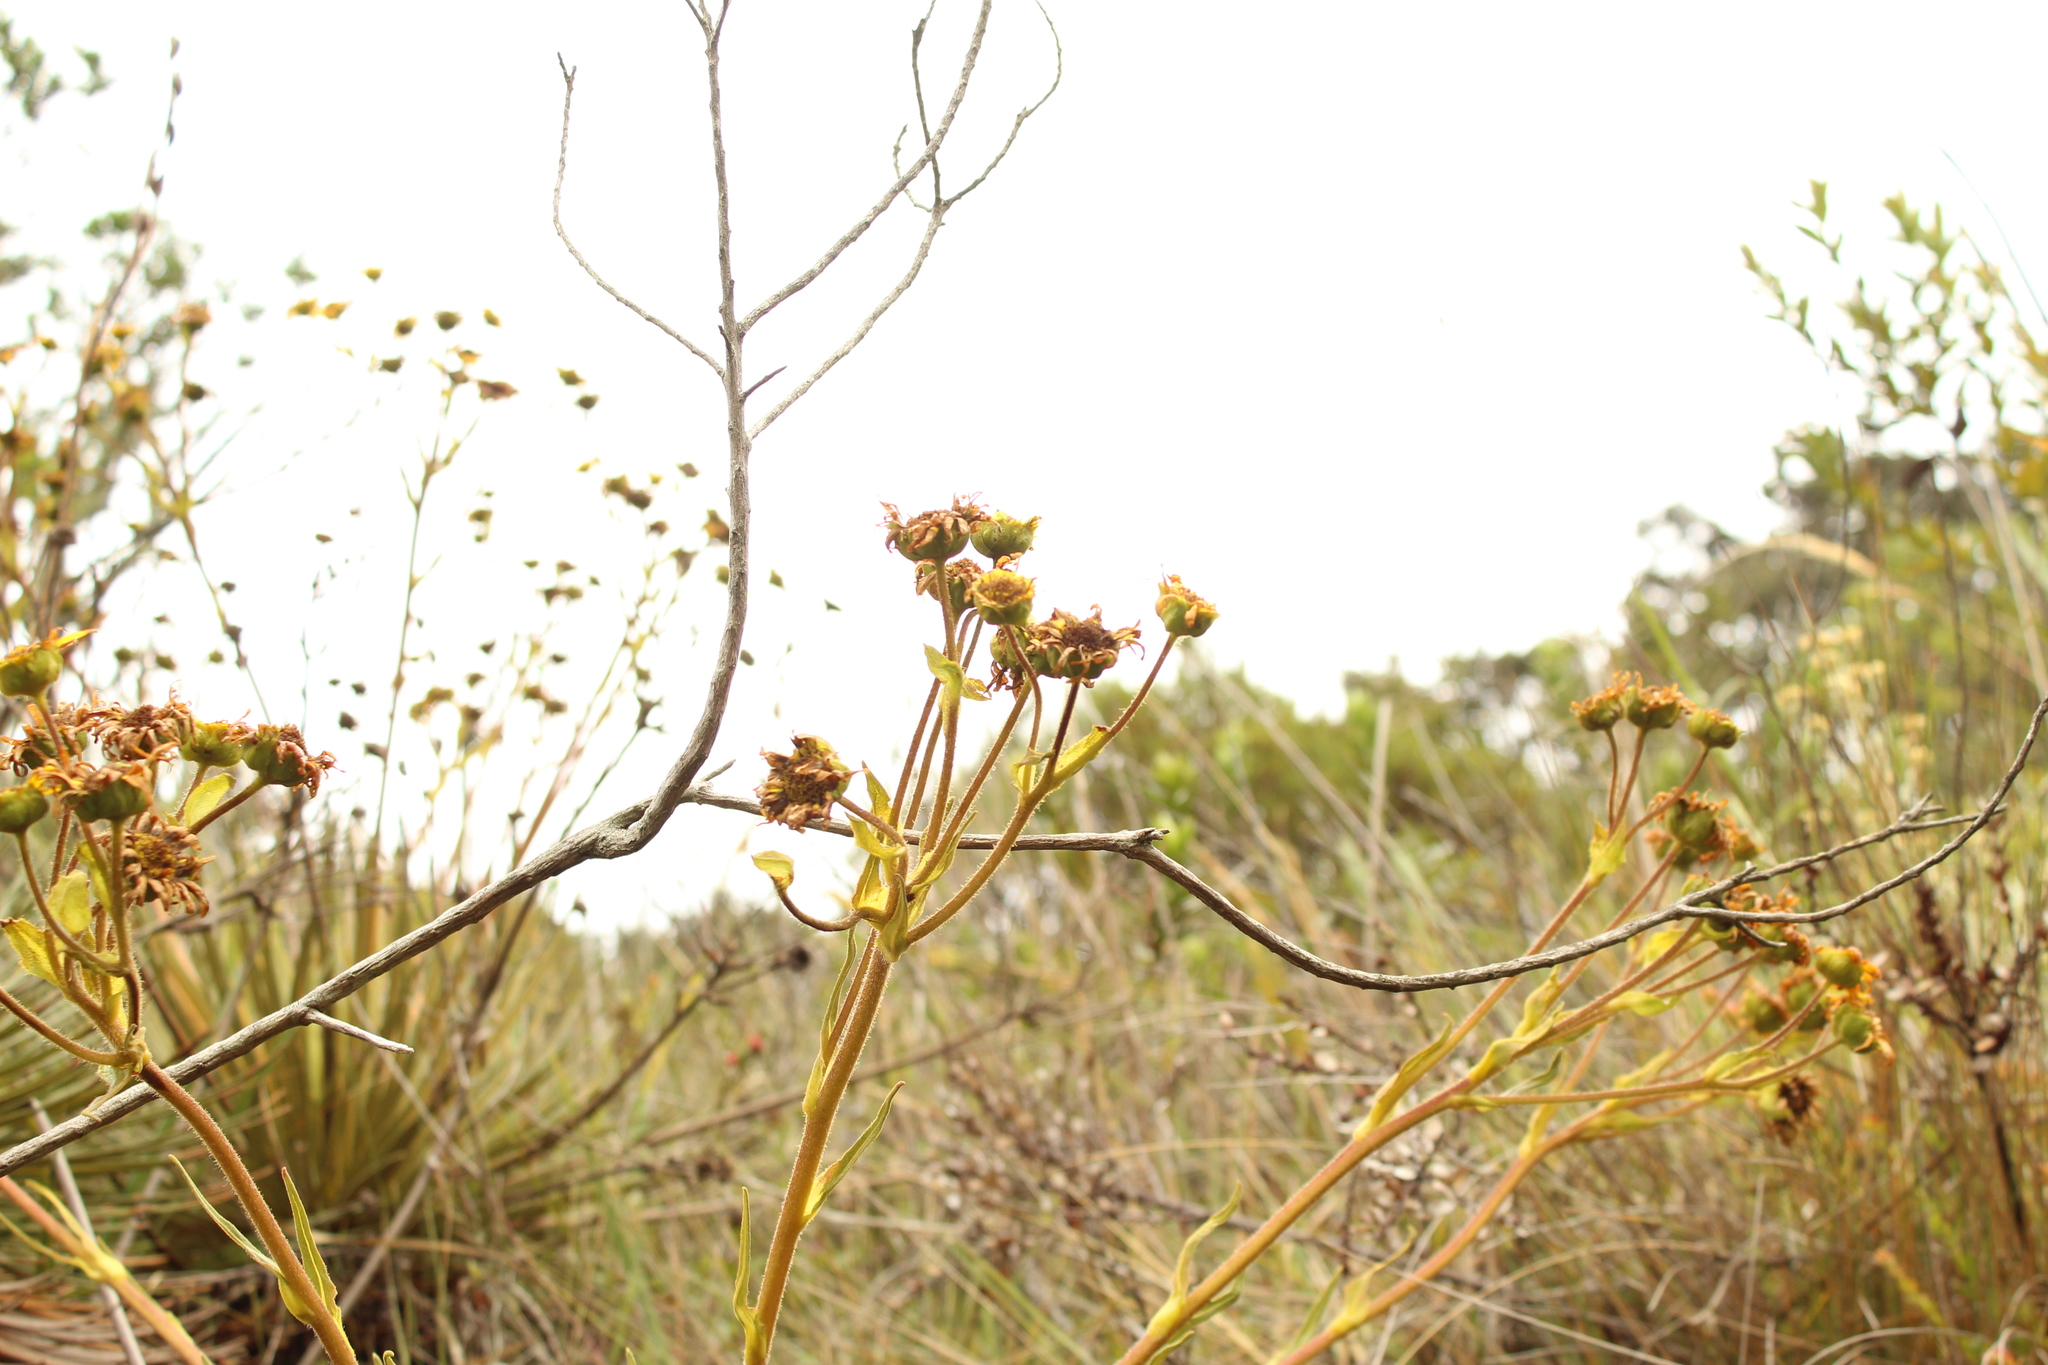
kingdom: Plantae
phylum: Tracheophyta
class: Magnoliopsida
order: Asterales
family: Asteraceae
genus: Espeletia
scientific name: Espeletia glandulosa
